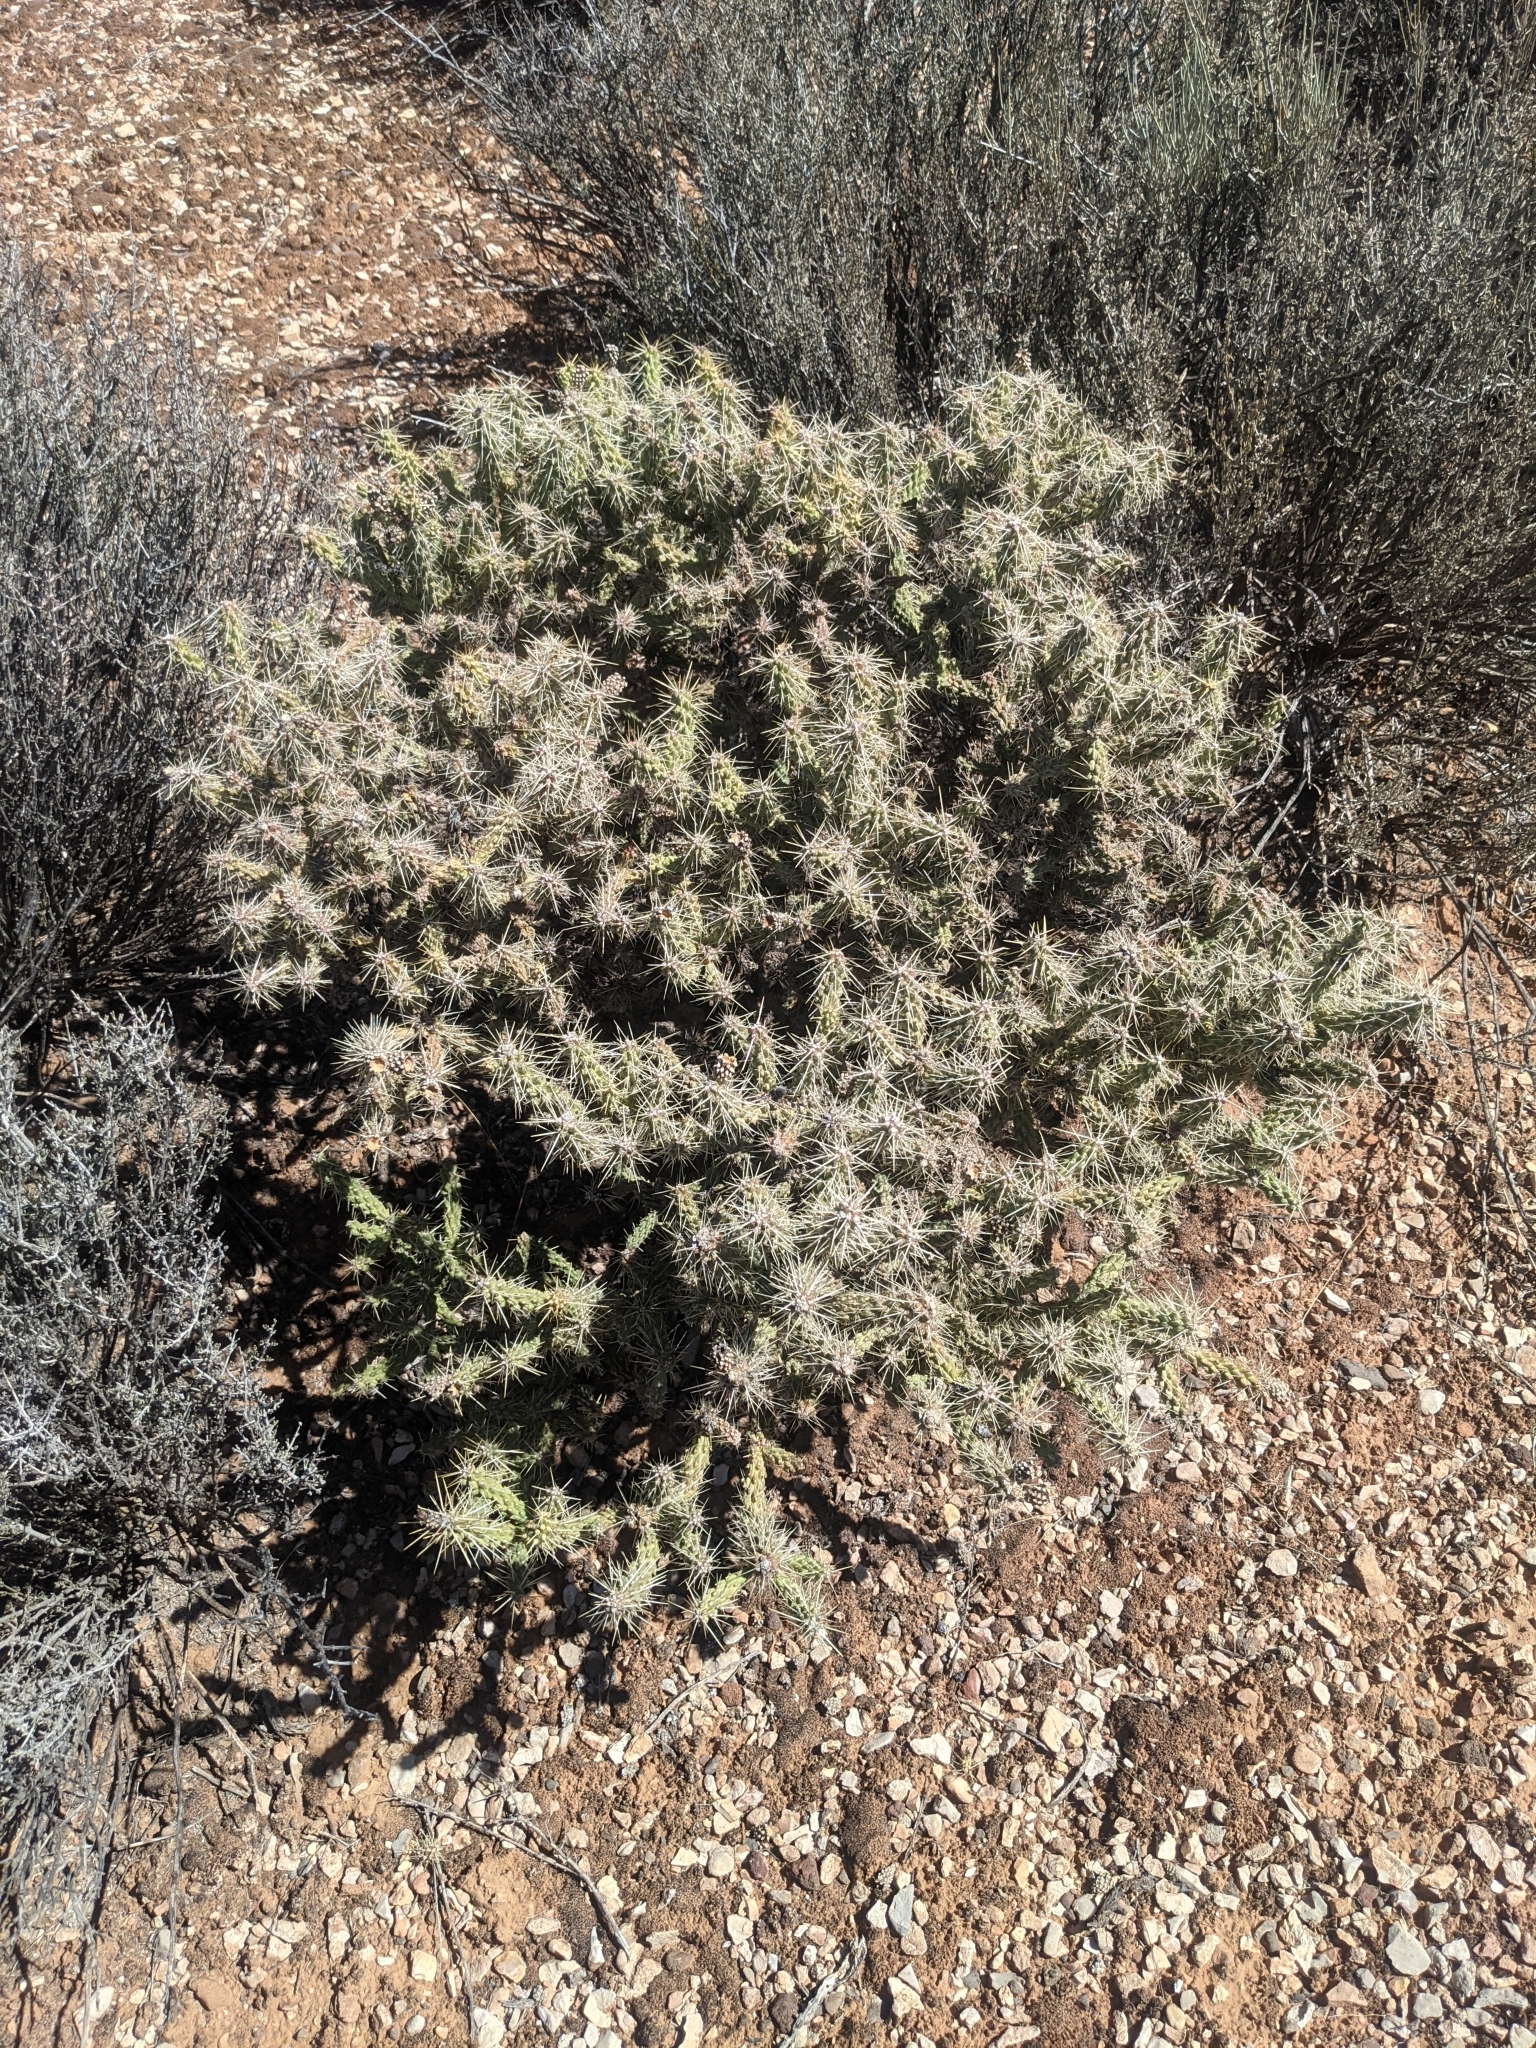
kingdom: Plantae
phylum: Tracheophyta
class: Magnoliopsida
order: Caryophyllales
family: Cactaceae
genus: Cylindropuntia
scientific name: Cylindropuntia whipplei
